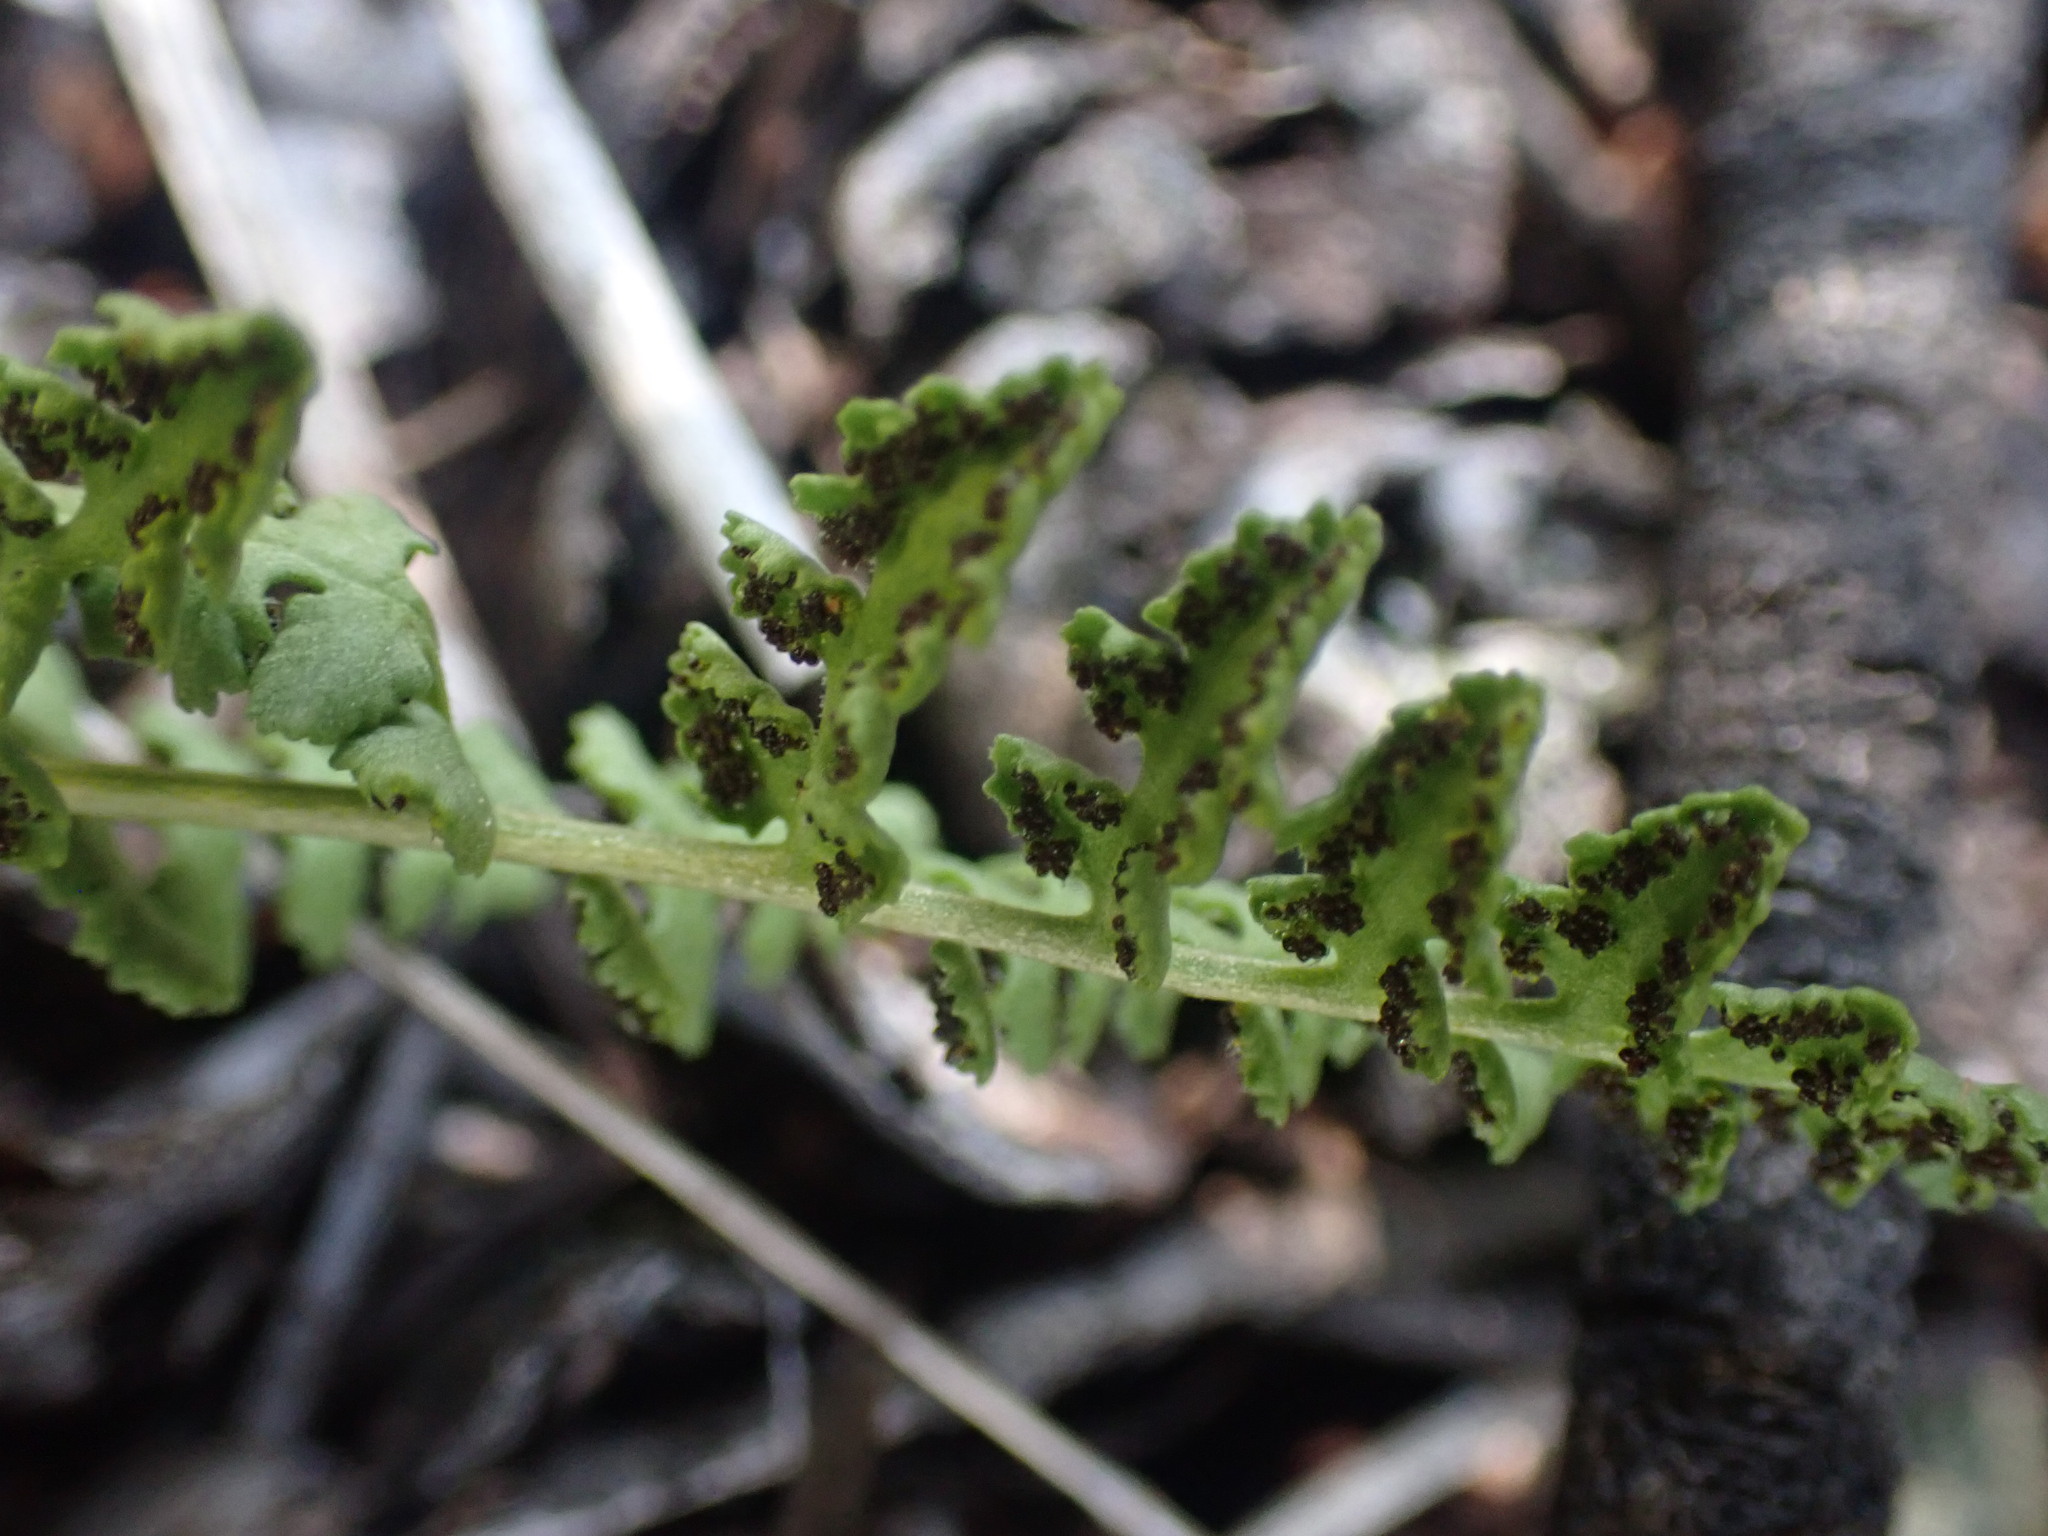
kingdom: Plantae
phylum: Tracheophyta
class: Polypodiopsida
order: Polypodiales
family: Woodsiaceae
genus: Physematium
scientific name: Physematium oreganum
